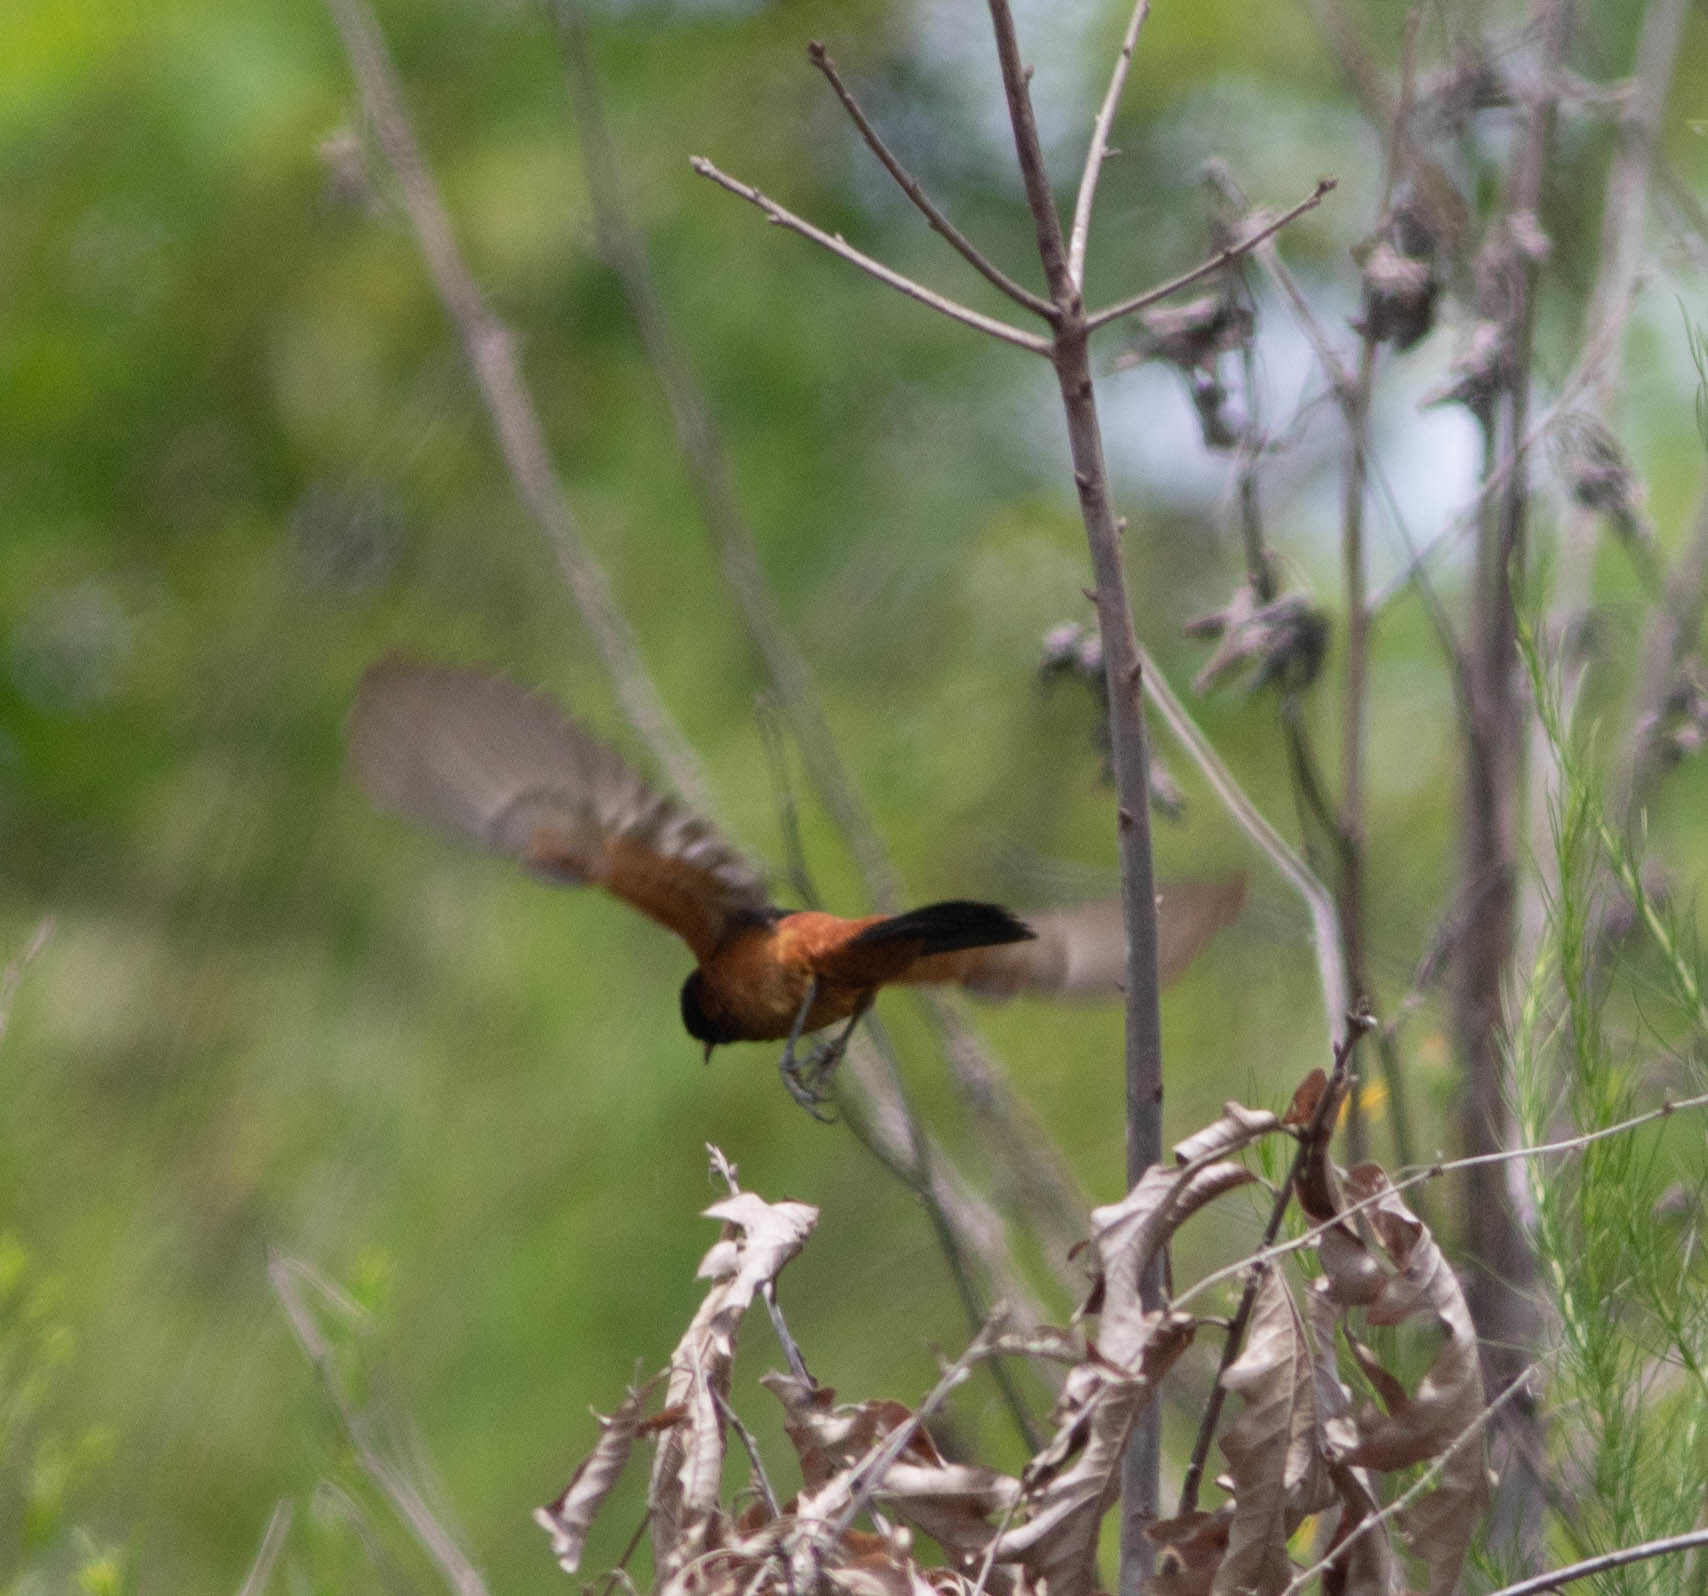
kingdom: Animalia
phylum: Chordata
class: Aves
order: Passeriformes
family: Icteridae
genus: Icterus
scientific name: Icterus spurius
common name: Orchard oriole
